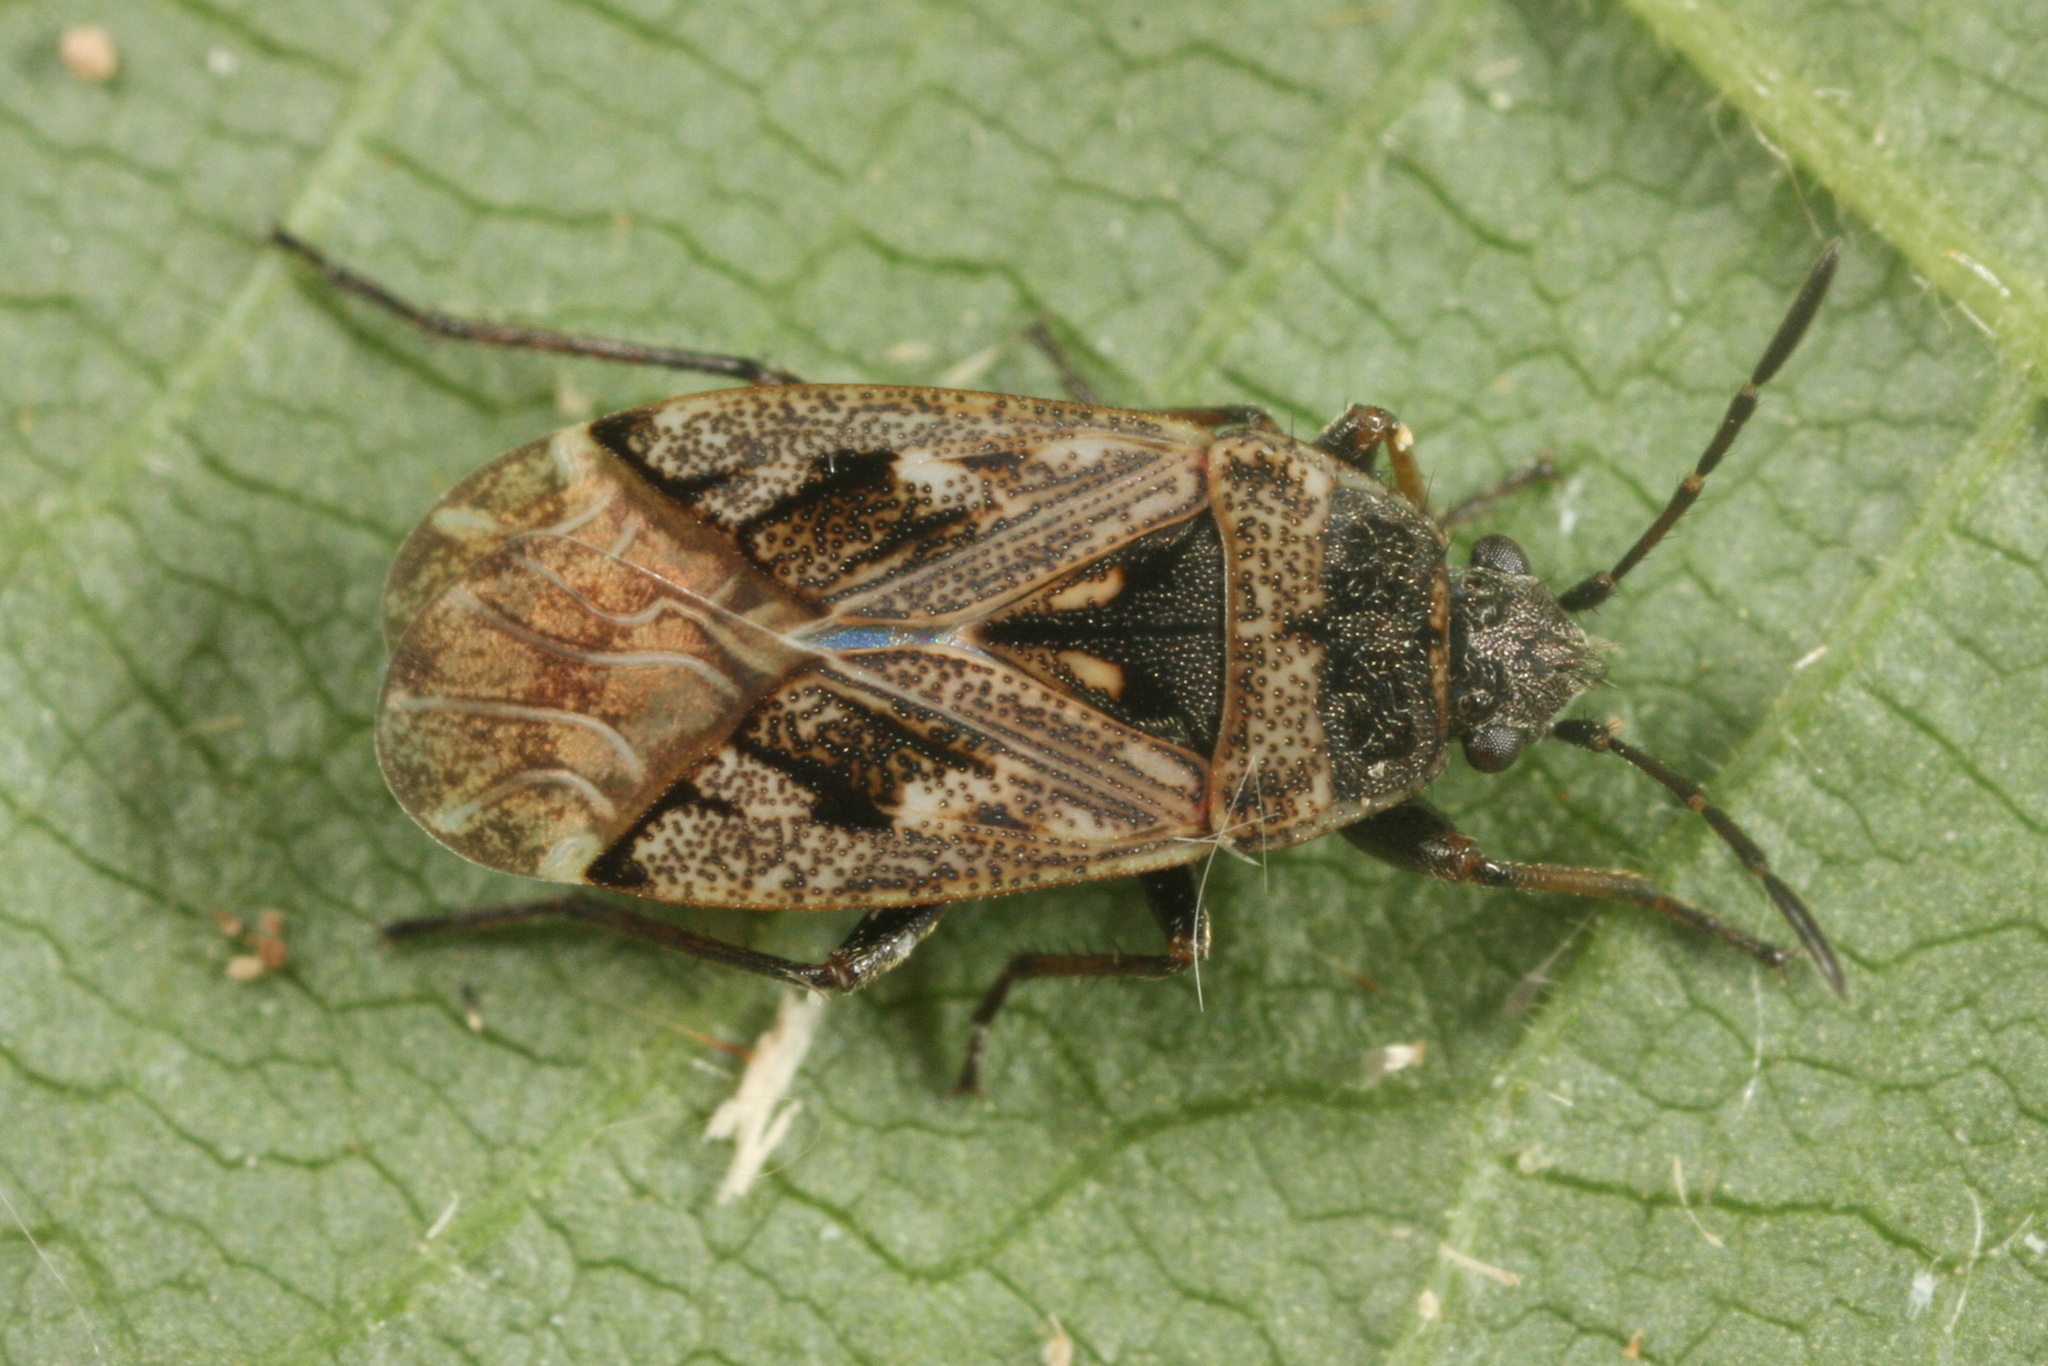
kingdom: Animalia
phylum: Arthropoda
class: Insecta
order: Hemiptera
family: Rhyparochromidae
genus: Sphragisticus
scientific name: Sphragisticus nebulosus
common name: Dirt-colored seed bug
